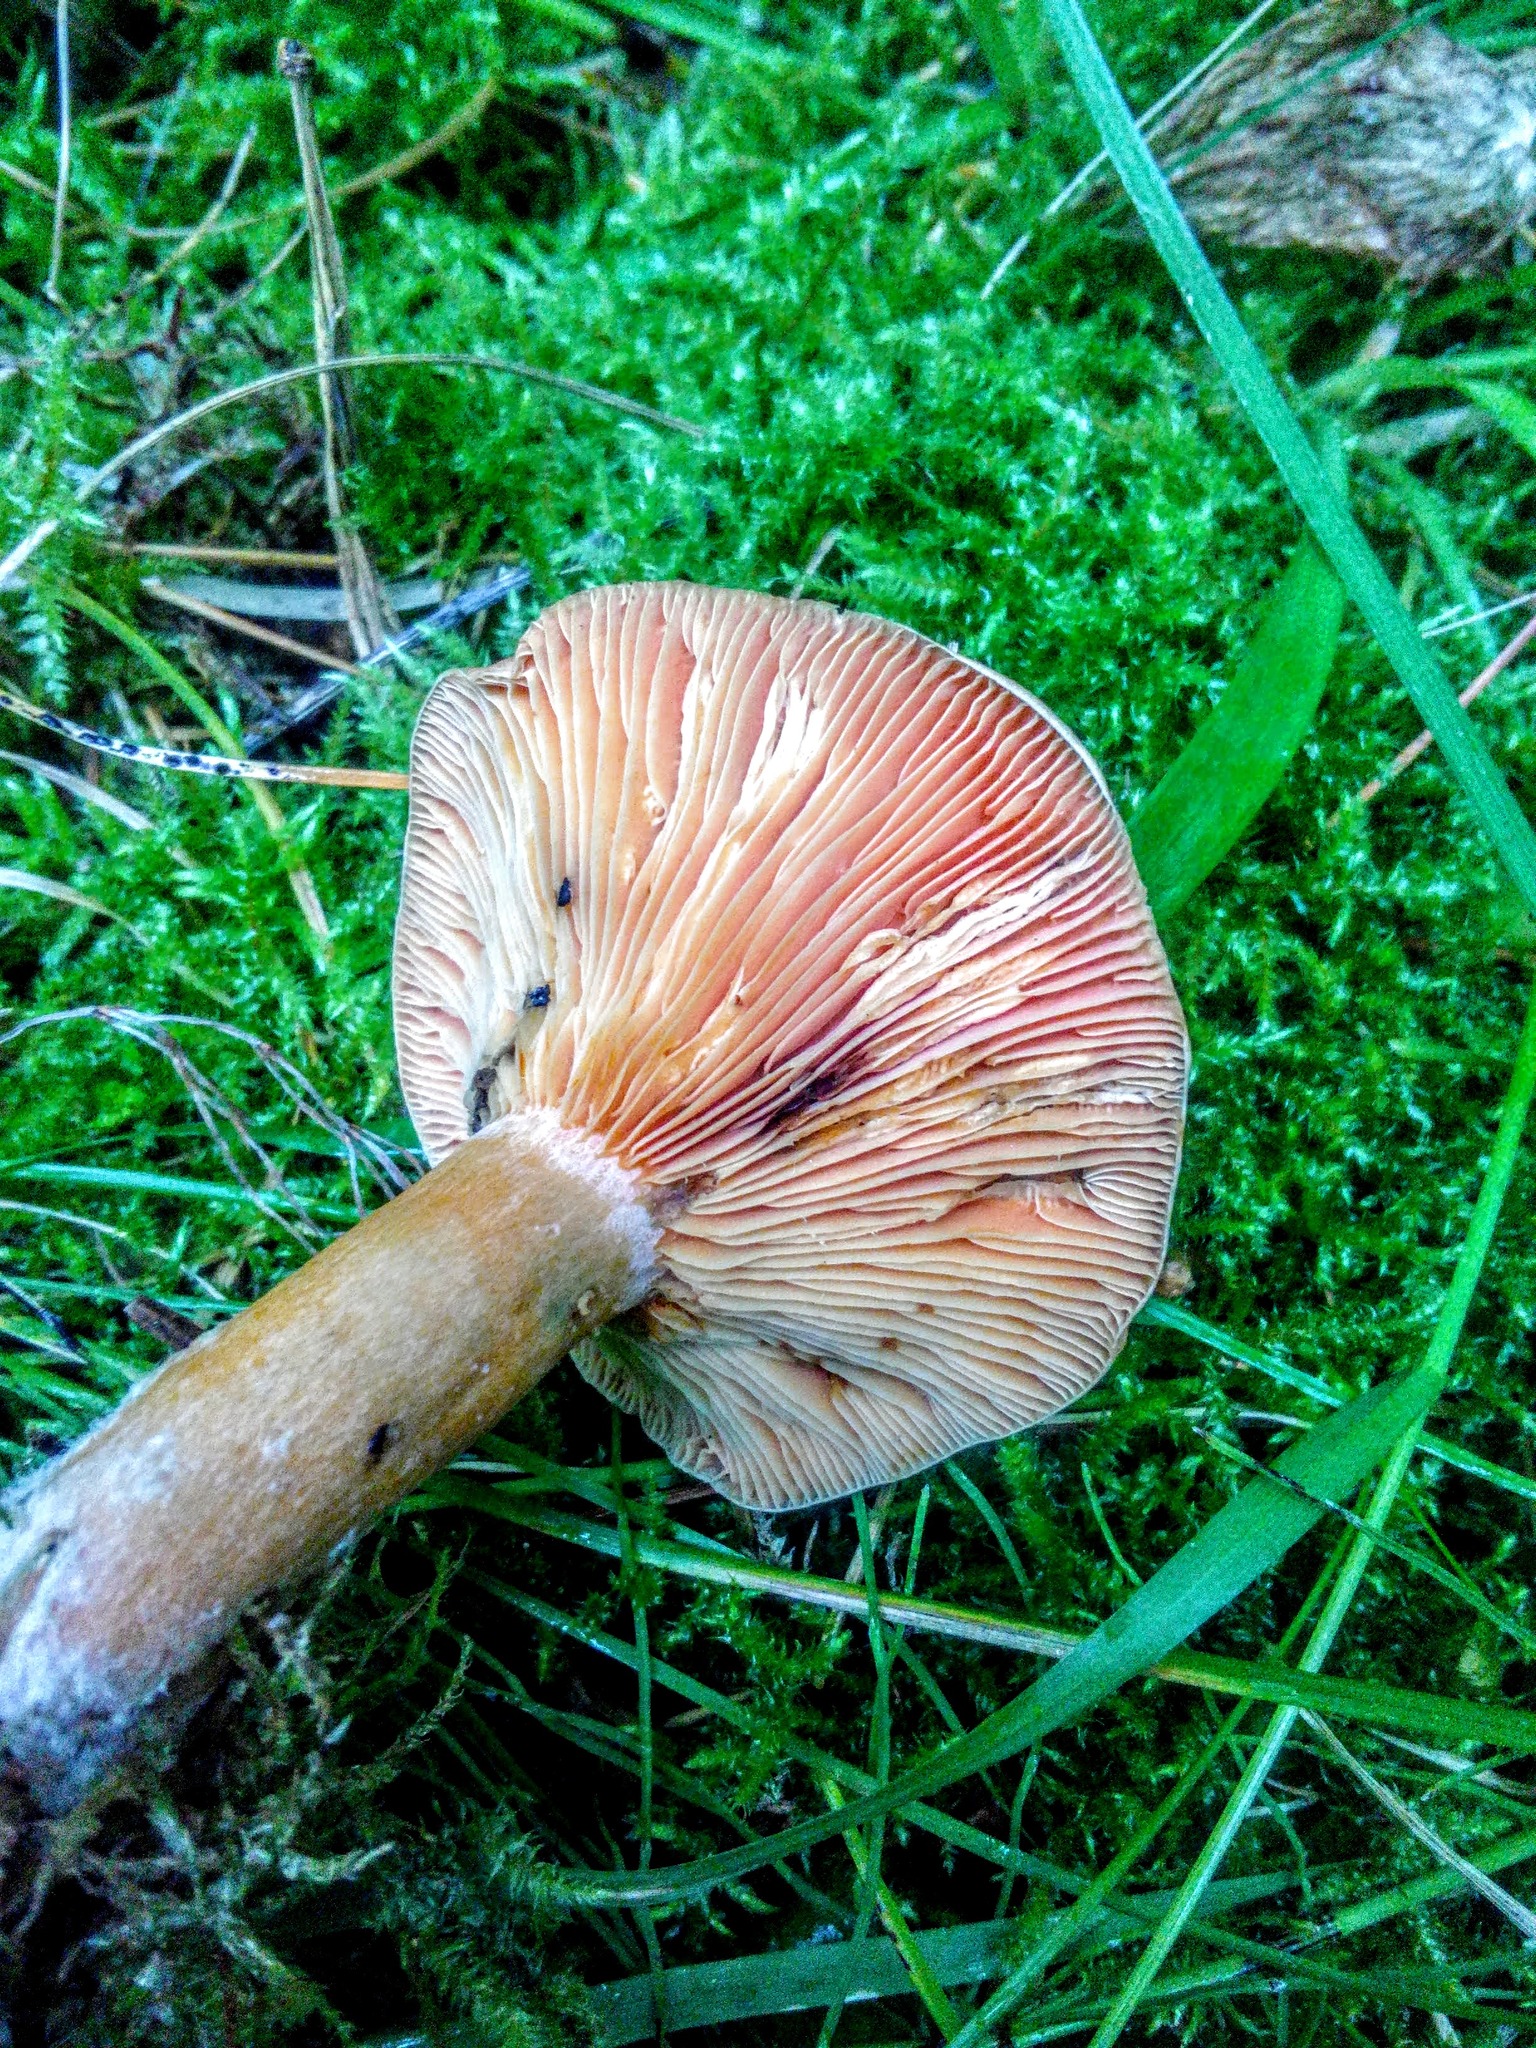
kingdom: Fungi
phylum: Basidiomycota
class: Agaricomycetes
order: Russulales
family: Russulaceae
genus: Lactarius
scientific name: Lactarius deliciosus
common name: Saffron milk-cap
